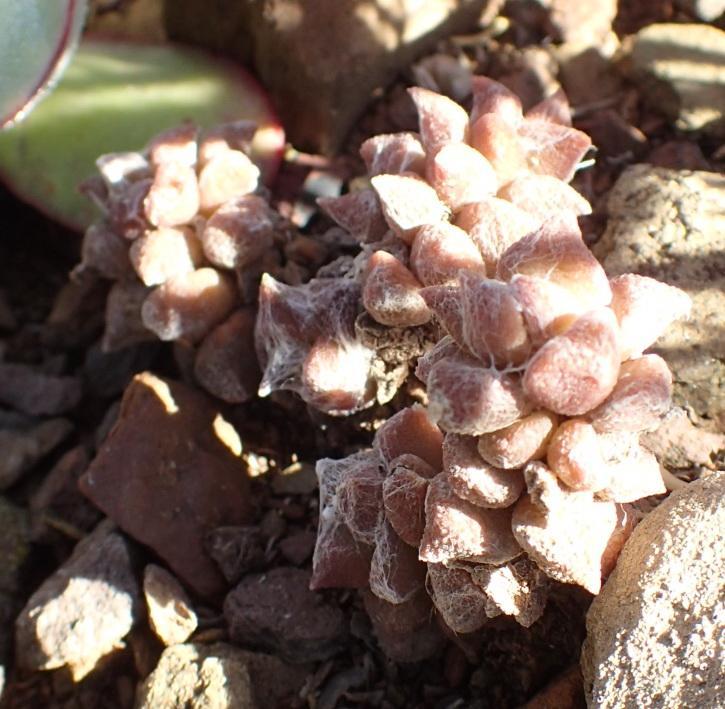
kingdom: Plantae
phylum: Tracheophyta
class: Magnoliopsida
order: Caryophyllales
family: Anacampserotaceae
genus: Anacampseros
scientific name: Anacampseros arachnoides
